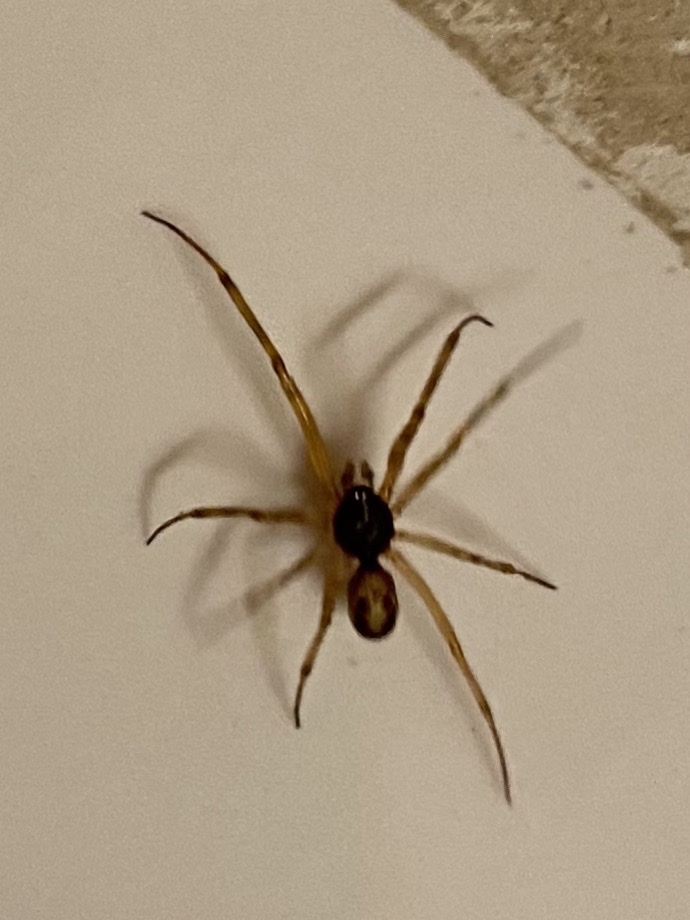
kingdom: Animalia
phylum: Arthropoda
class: Arachnida
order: Araneae
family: Theridiidae
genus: Steatoda
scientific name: Steatoda triangulosa
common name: Triangulate bud spider
